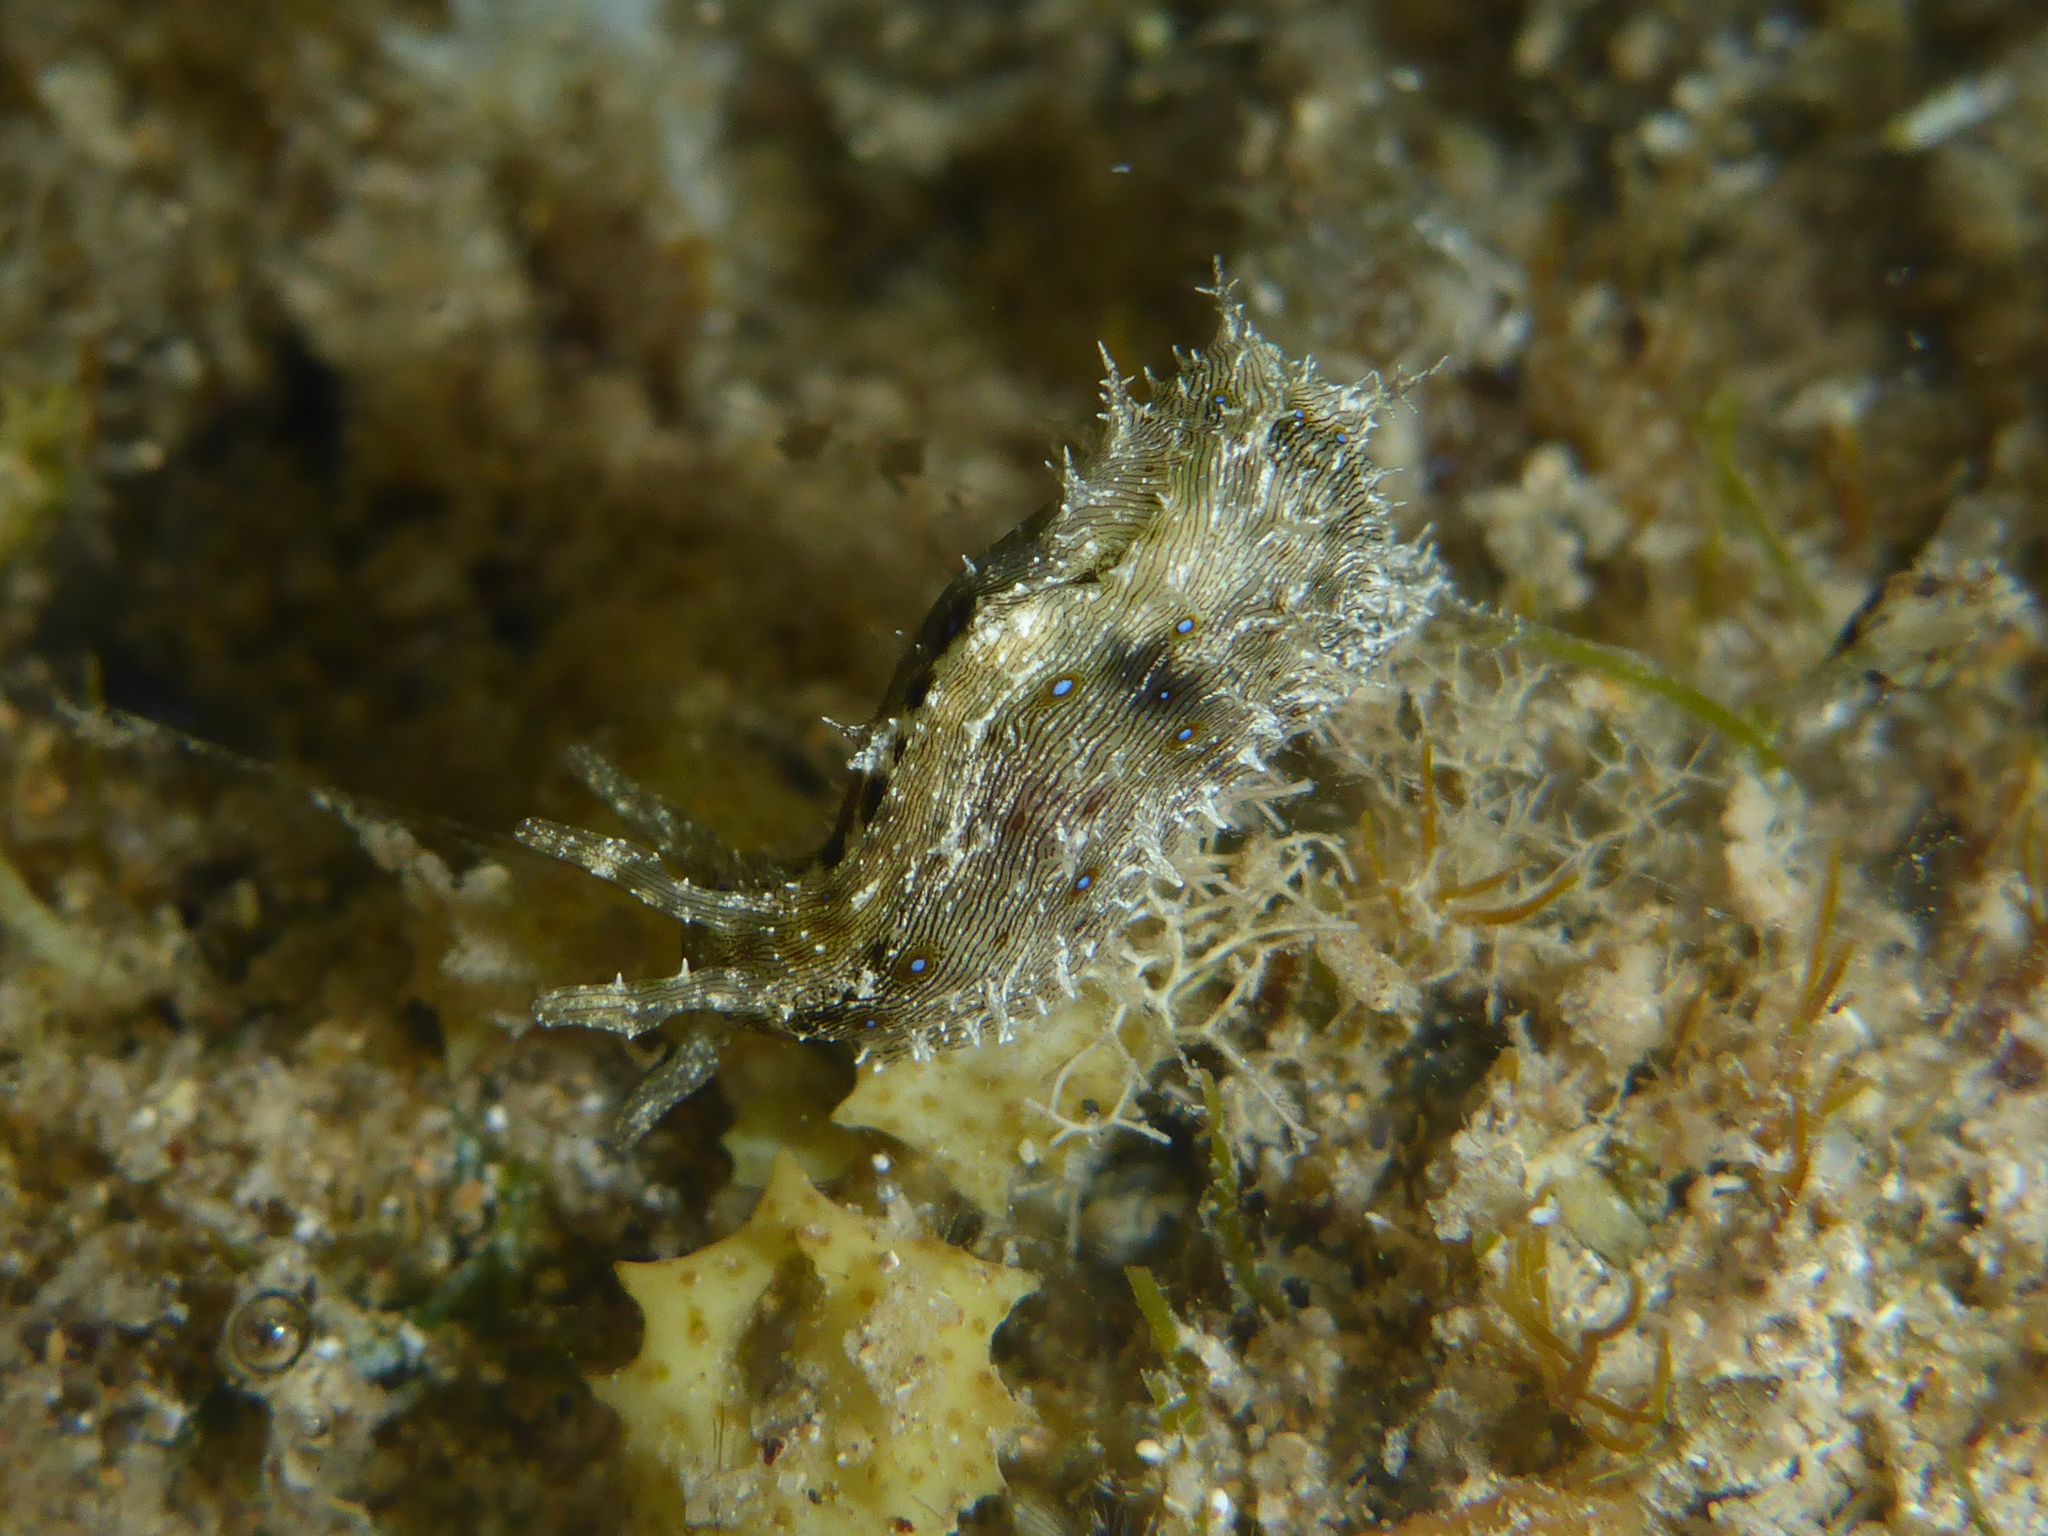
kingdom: Animalia
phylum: Mollusca
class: Gastropoda
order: Aplysiida
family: Aplysiidae
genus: Stylocheilus
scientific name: Stylocheilus striatus
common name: Striated seahare
